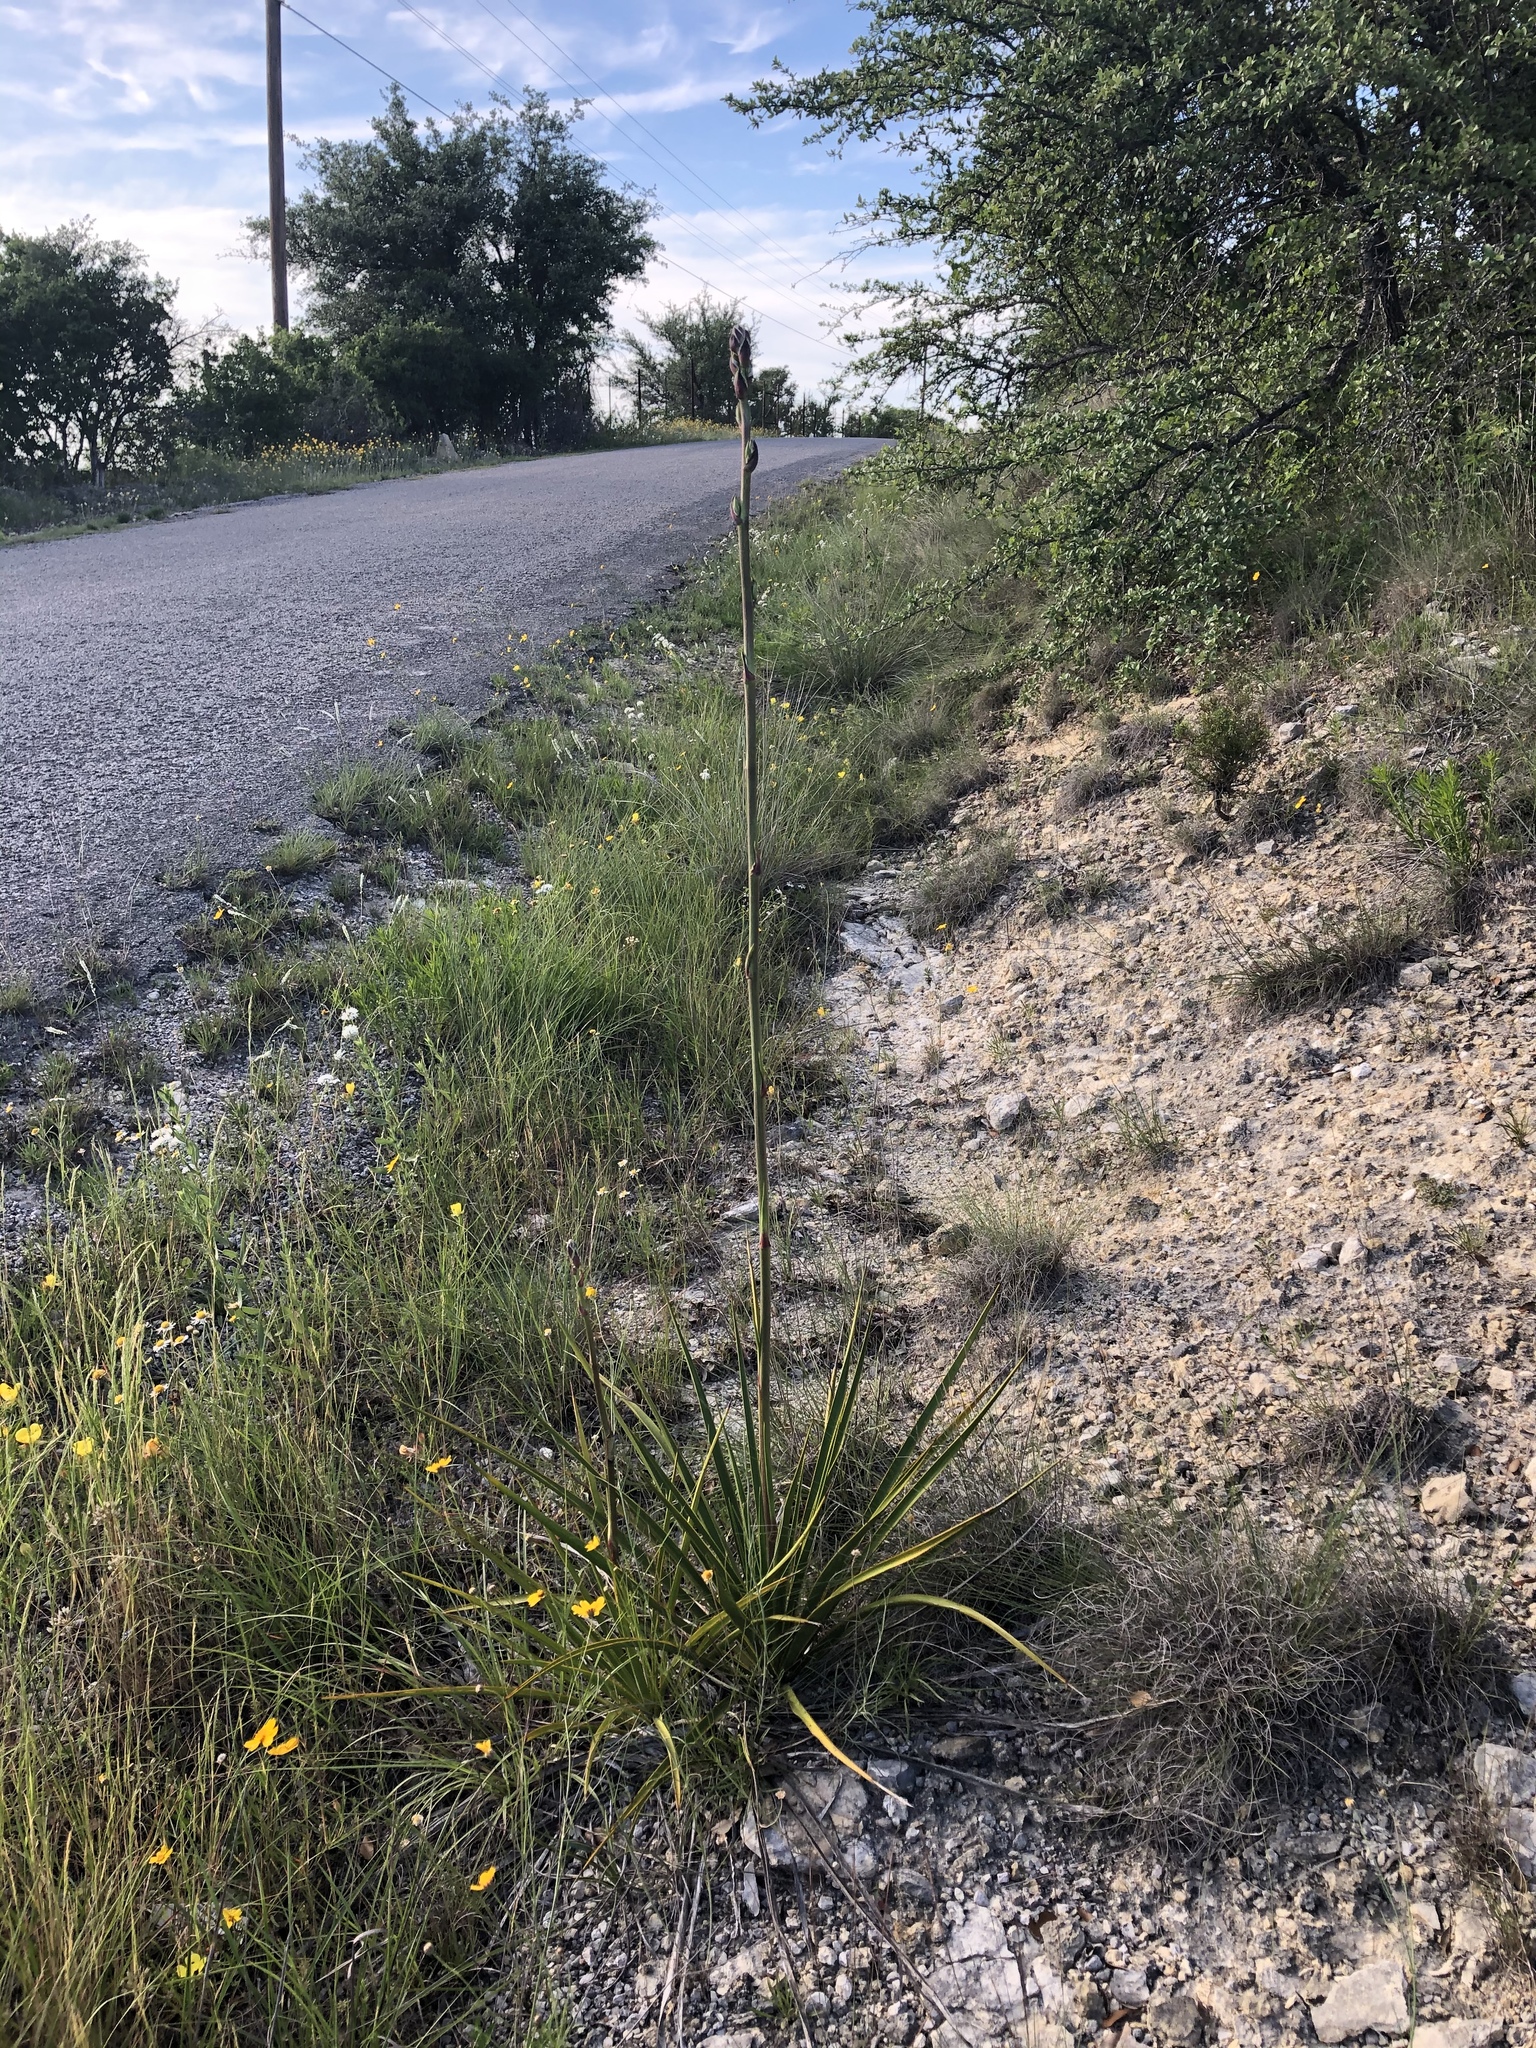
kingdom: Plantae
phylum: Tracheophyta
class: Liliopsida
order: Asparagales
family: Asparagaceae
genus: Yucca
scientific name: Yucca rupicola
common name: Twisted-leaf spanish-dagger
